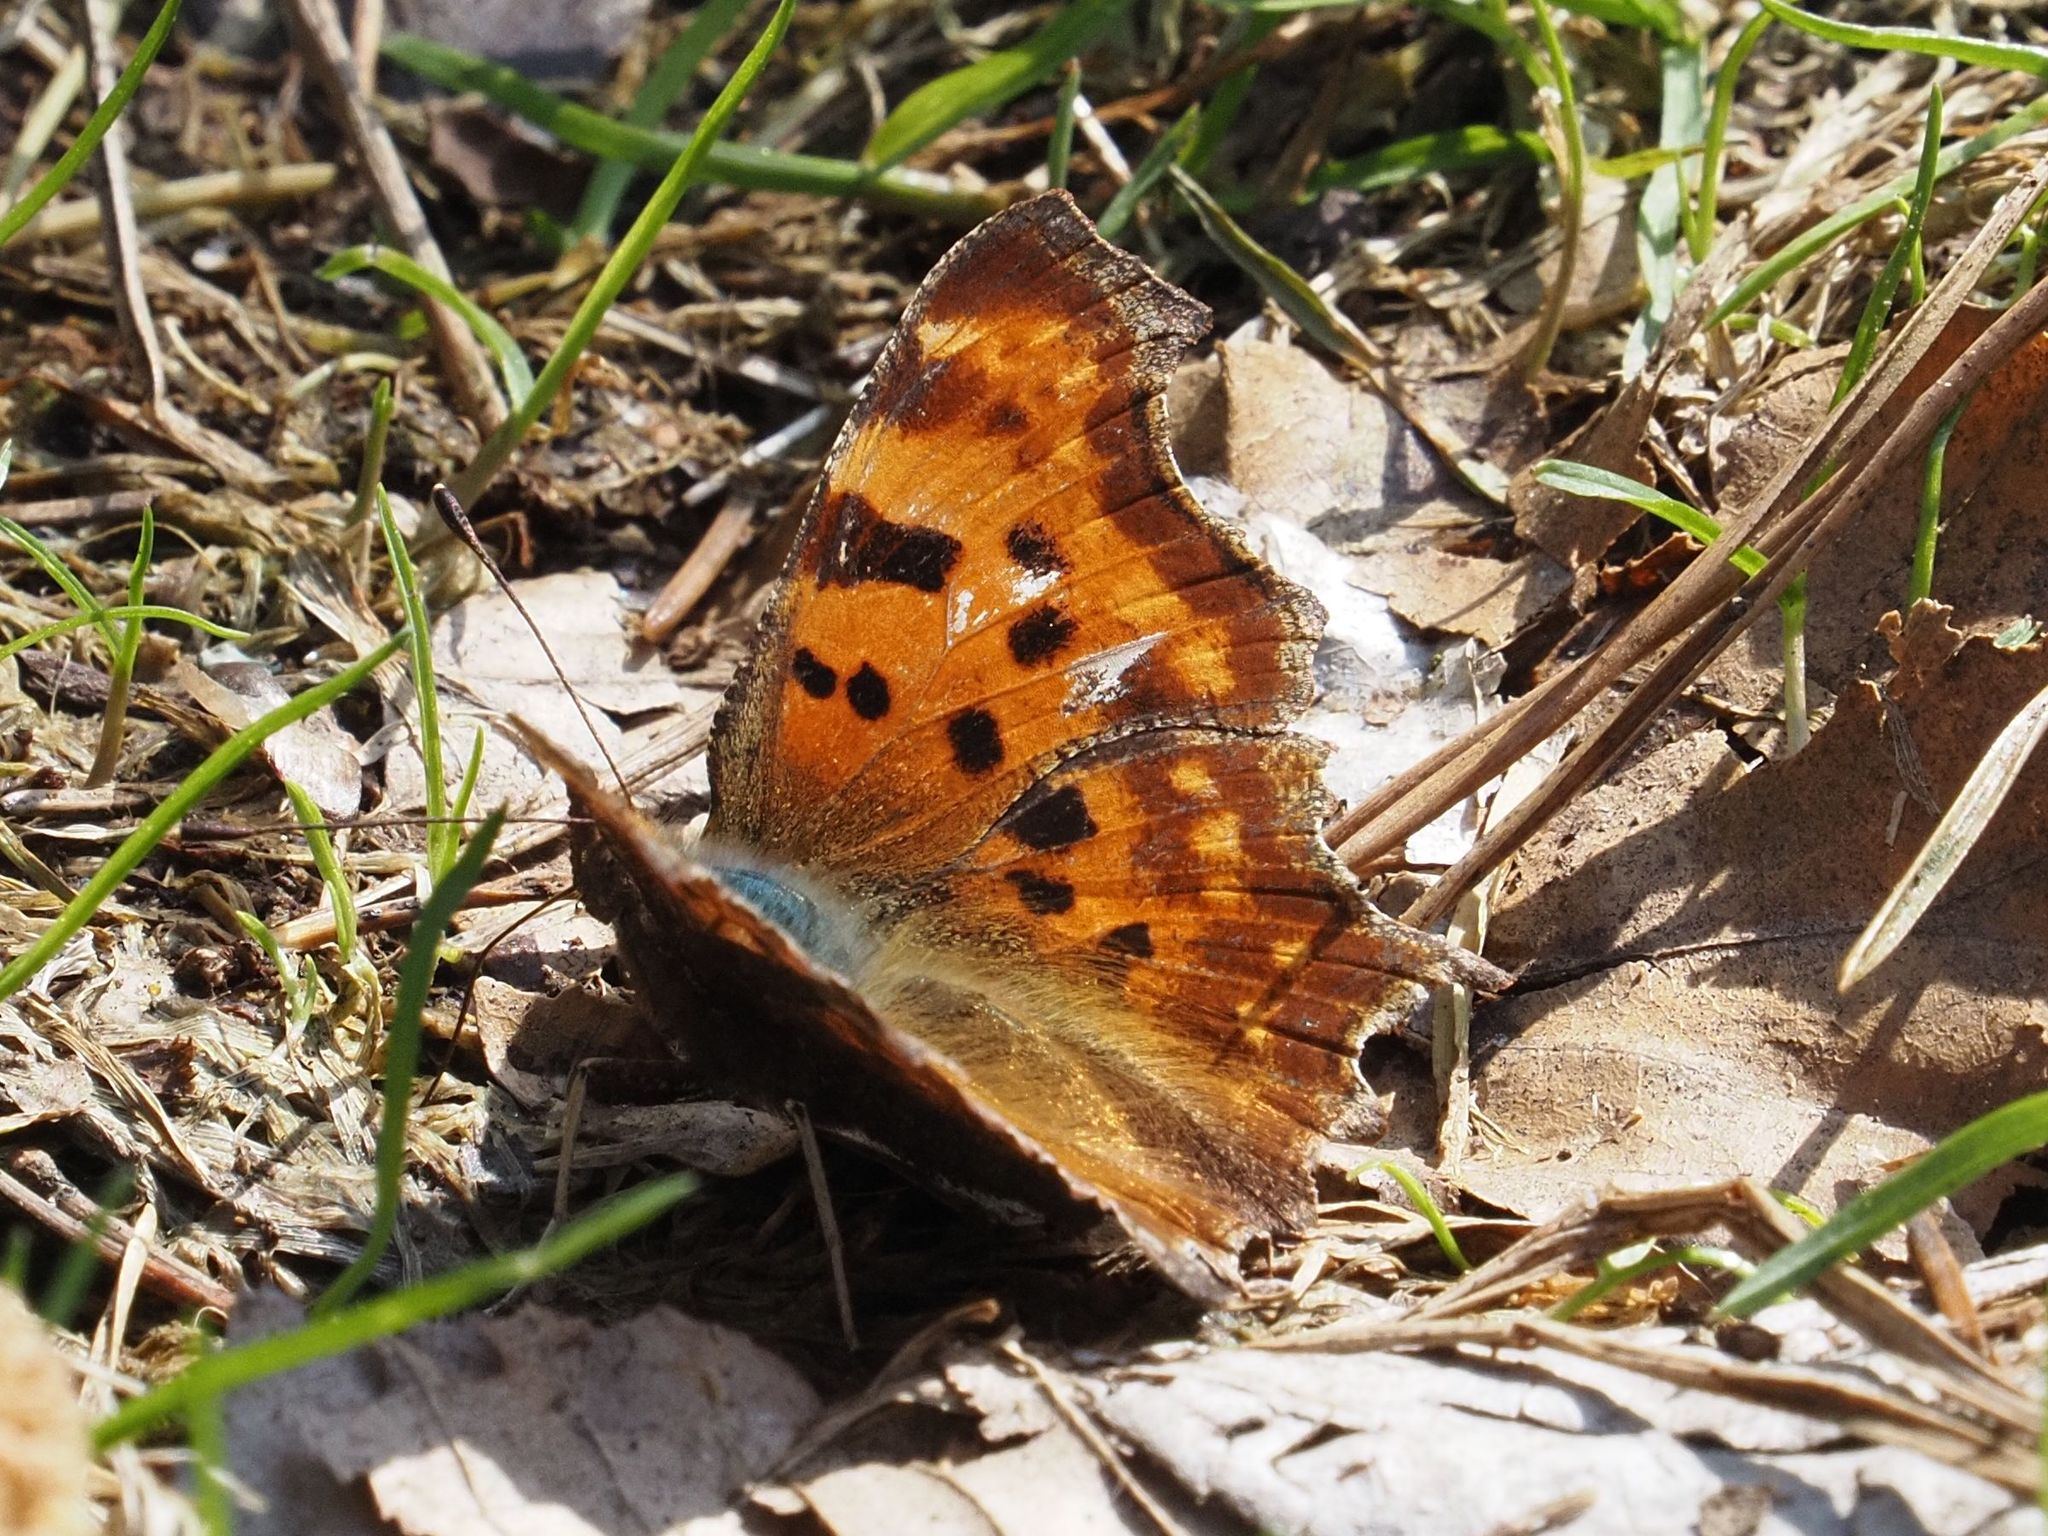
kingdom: Animalia
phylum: Arthropoda
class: Insecta
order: Lepidoptera
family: Nymphalidae
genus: Polygonia
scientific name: Polygonia c-album
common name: Comma
